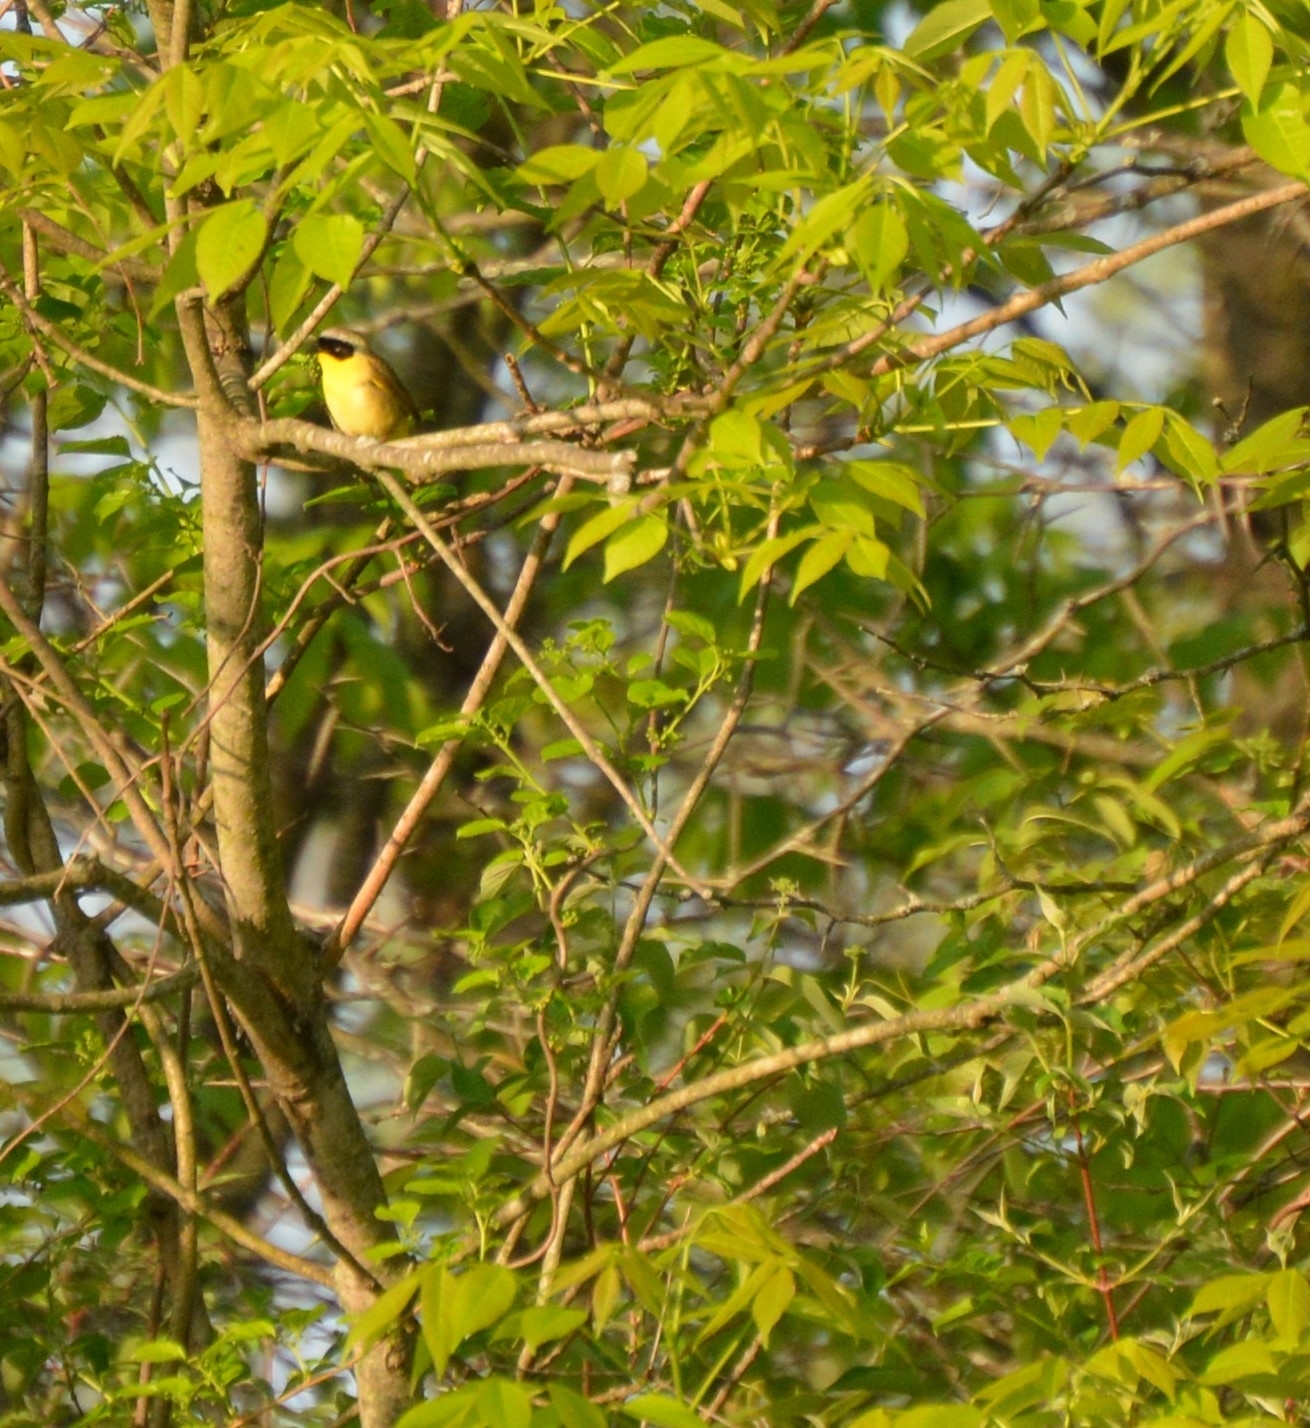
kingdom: Animalia
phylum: Chordata
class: Aves
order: Passeriformes
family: Parulidae
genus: Geothlypis
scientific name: Geothlypis trichas
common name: Common yellowthroat
